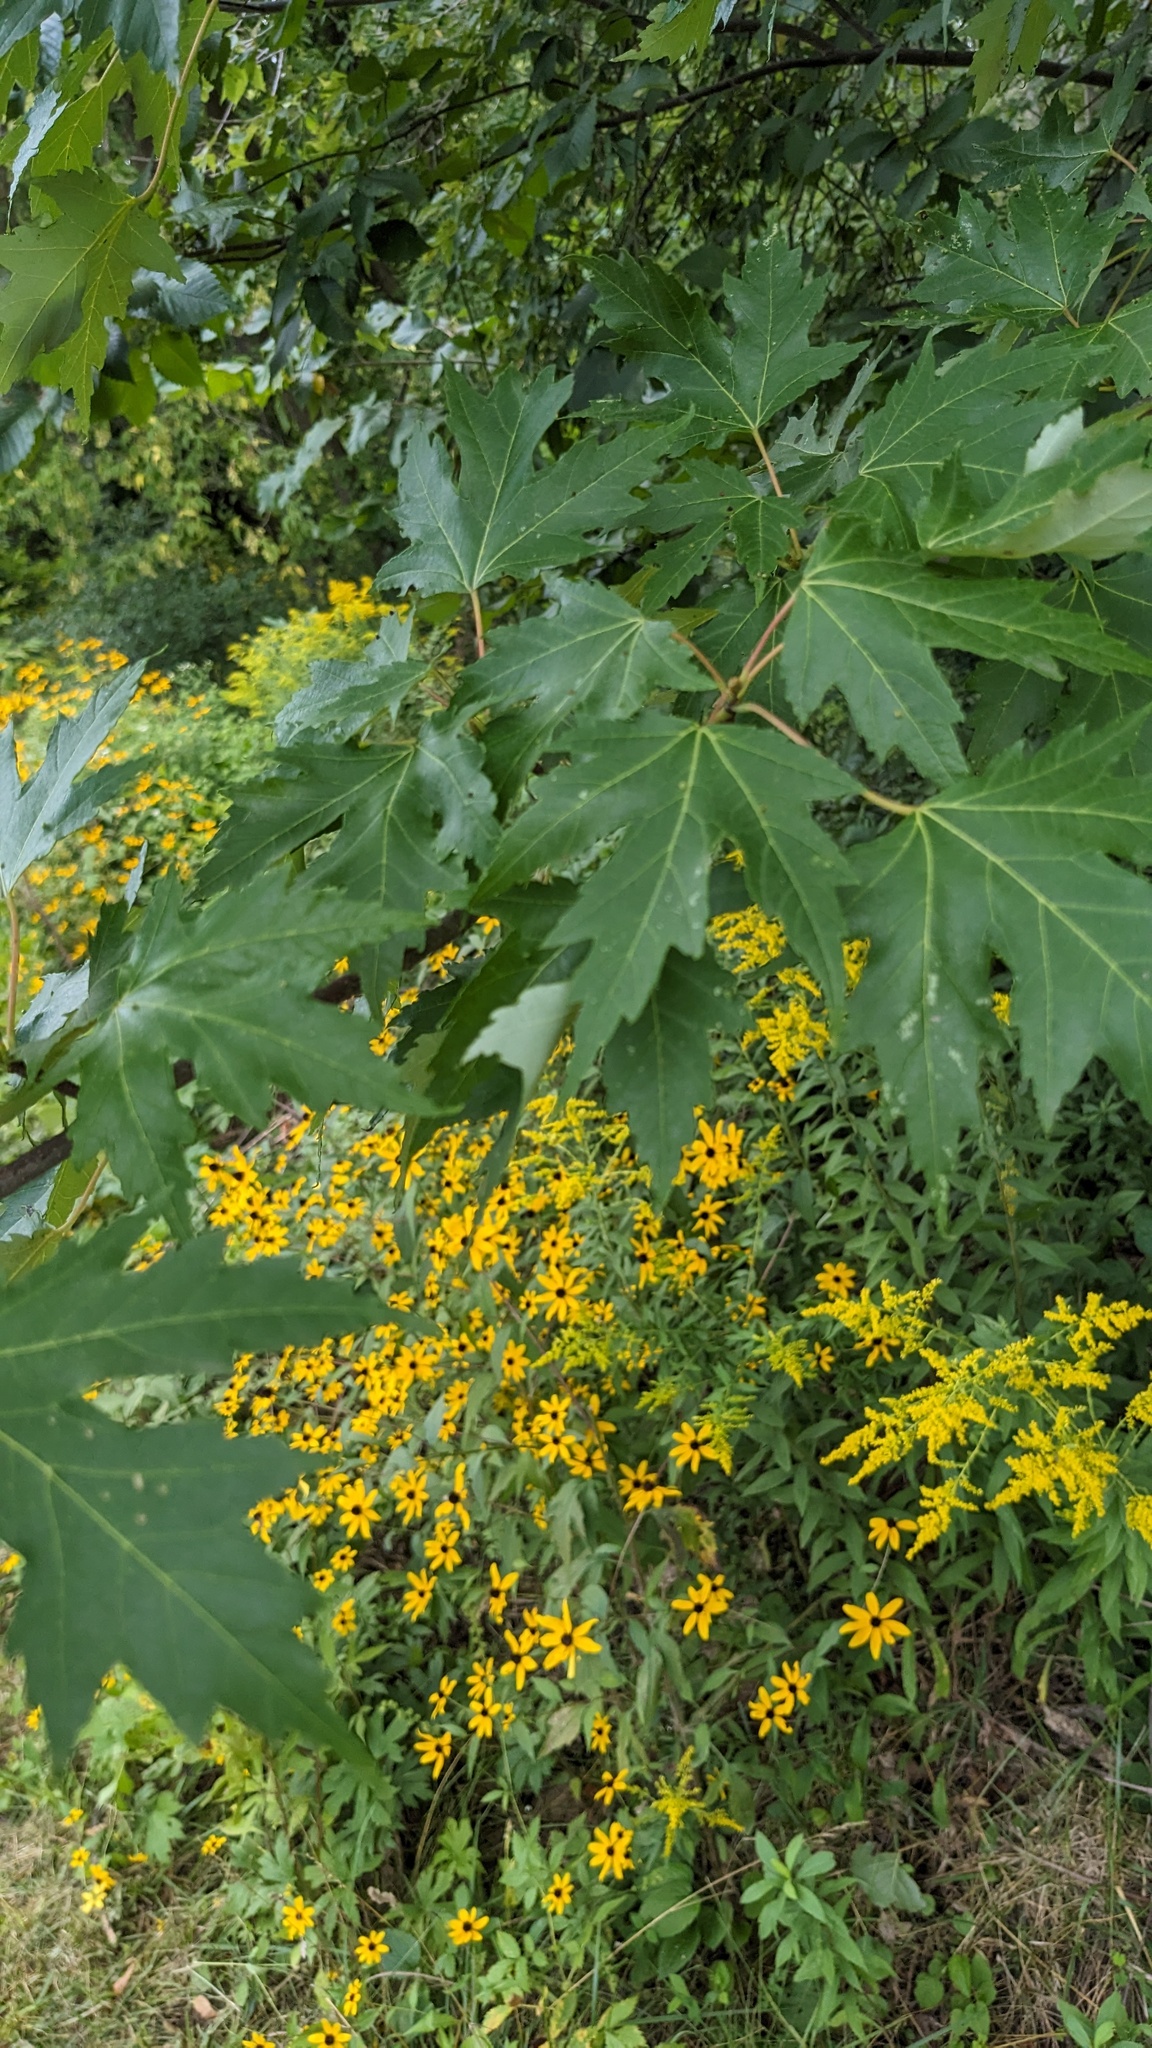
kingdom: Plantae
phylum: Tracheophyta
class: Magnoliopsida
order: Sapindales
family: Sapindaceae
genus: Acer
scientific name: Acer saccharinum
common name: Silver maple
